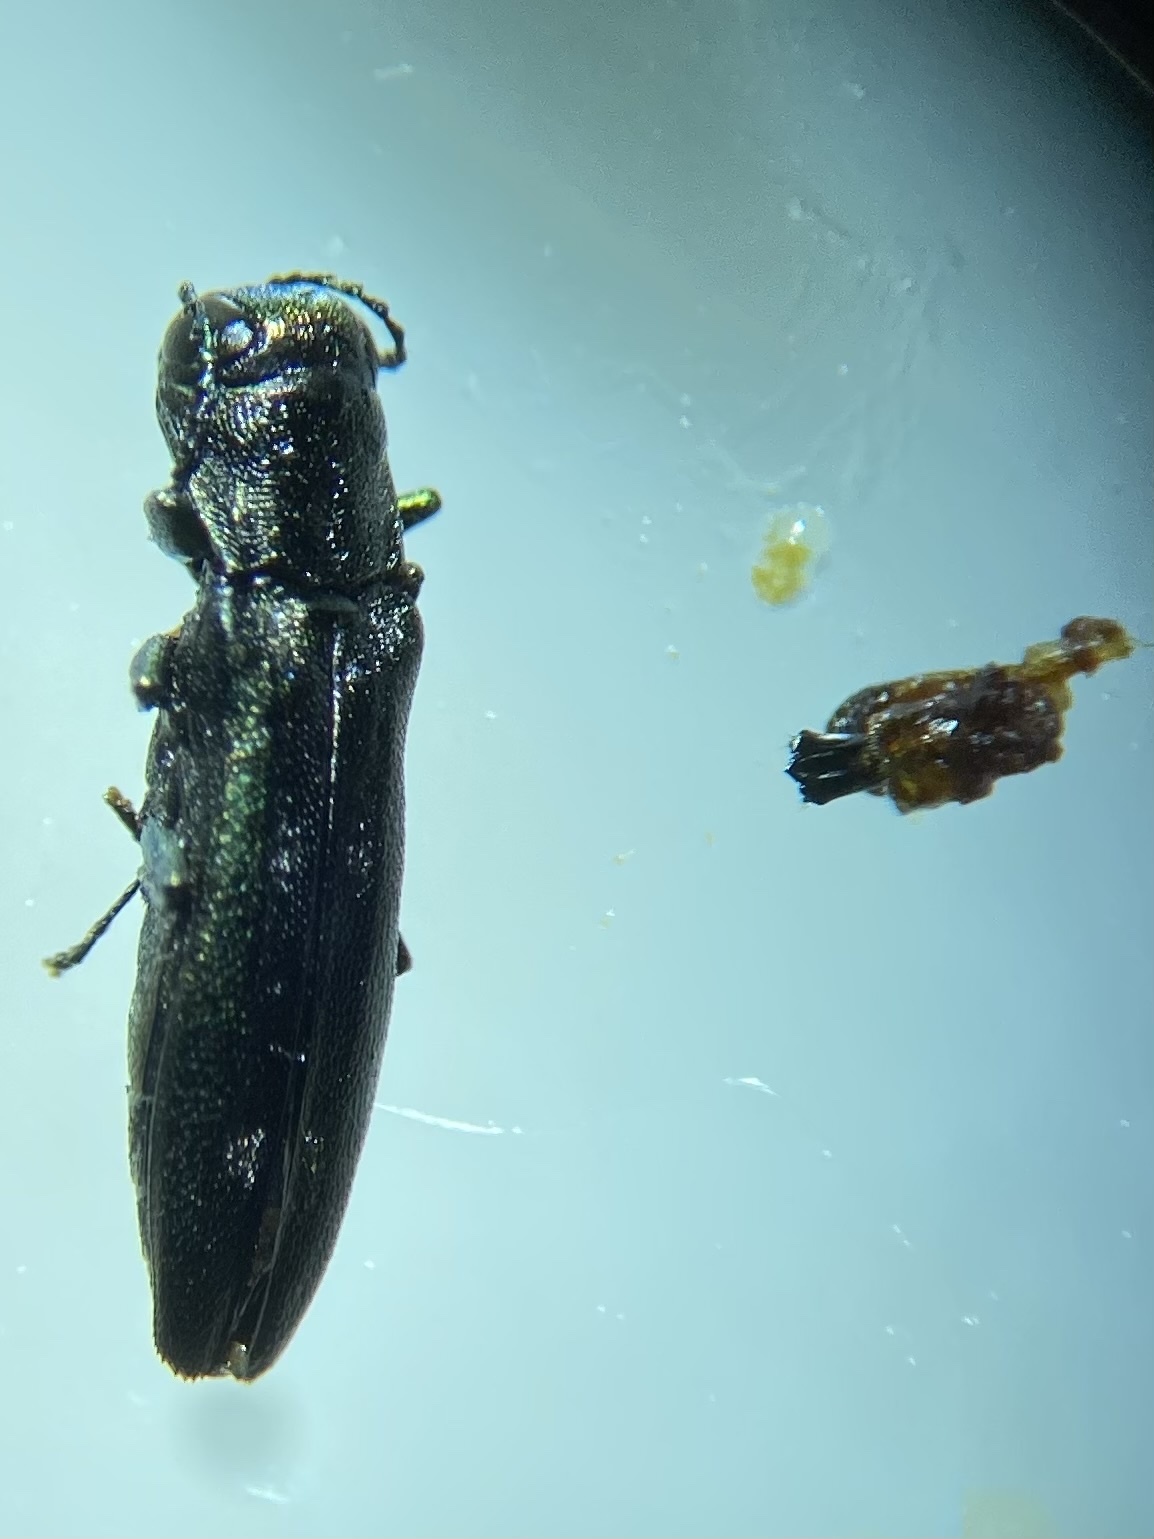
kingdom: Animalia
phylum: Arthropoda
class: Insecta
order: Coleoptera
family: Buprestidae
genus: Agrilus
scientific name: Agrilus fallax
